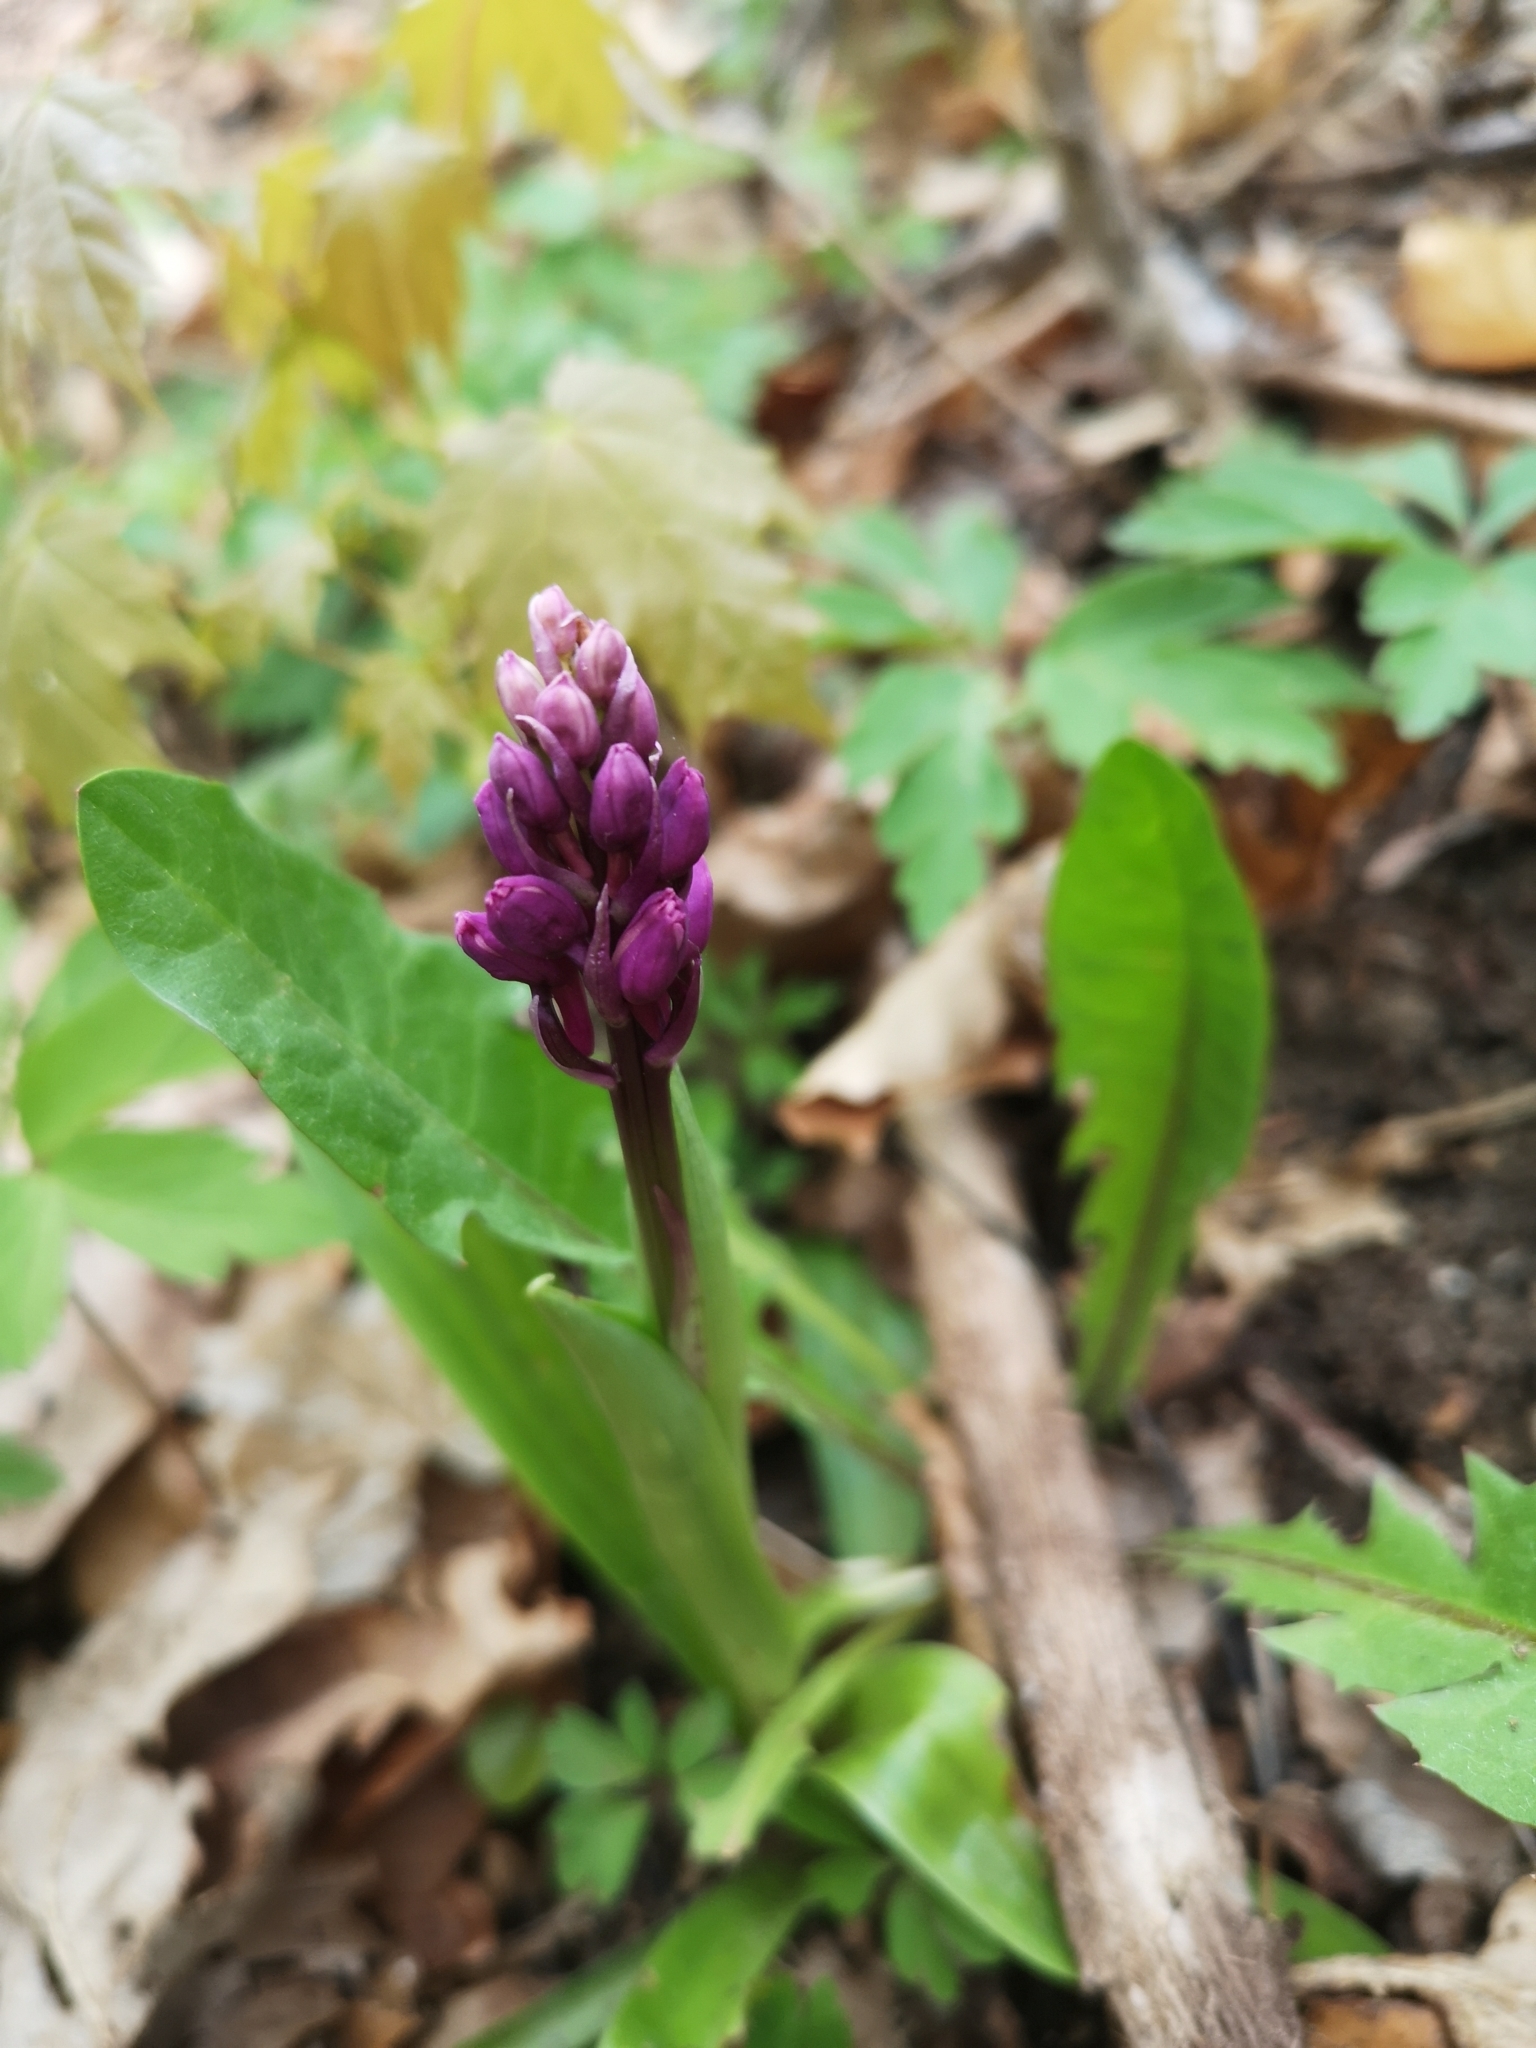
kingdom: Plantae
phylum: Tracheophyta
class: Liliopsida
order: Asparagales
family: Orchidaceae
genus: Orchis
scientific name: Orchis mascula
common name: Early-purple orchid
